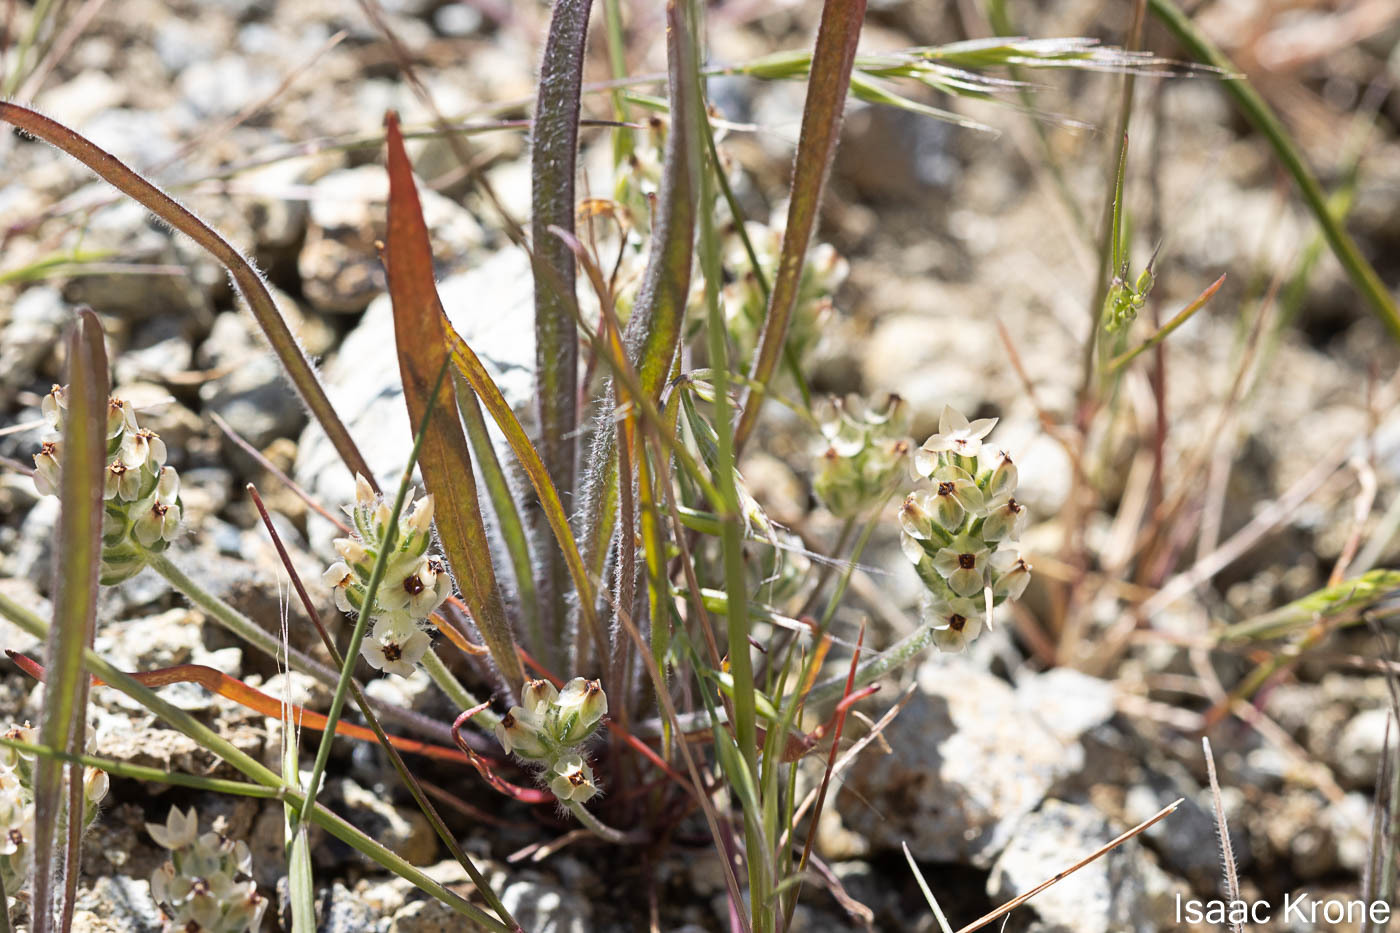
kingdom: Plantae
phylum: Tracheophyta
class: Magnoliopsida
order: Lamiales
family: Plantaginaceae
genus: Plantago
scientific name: Plantago erecta
